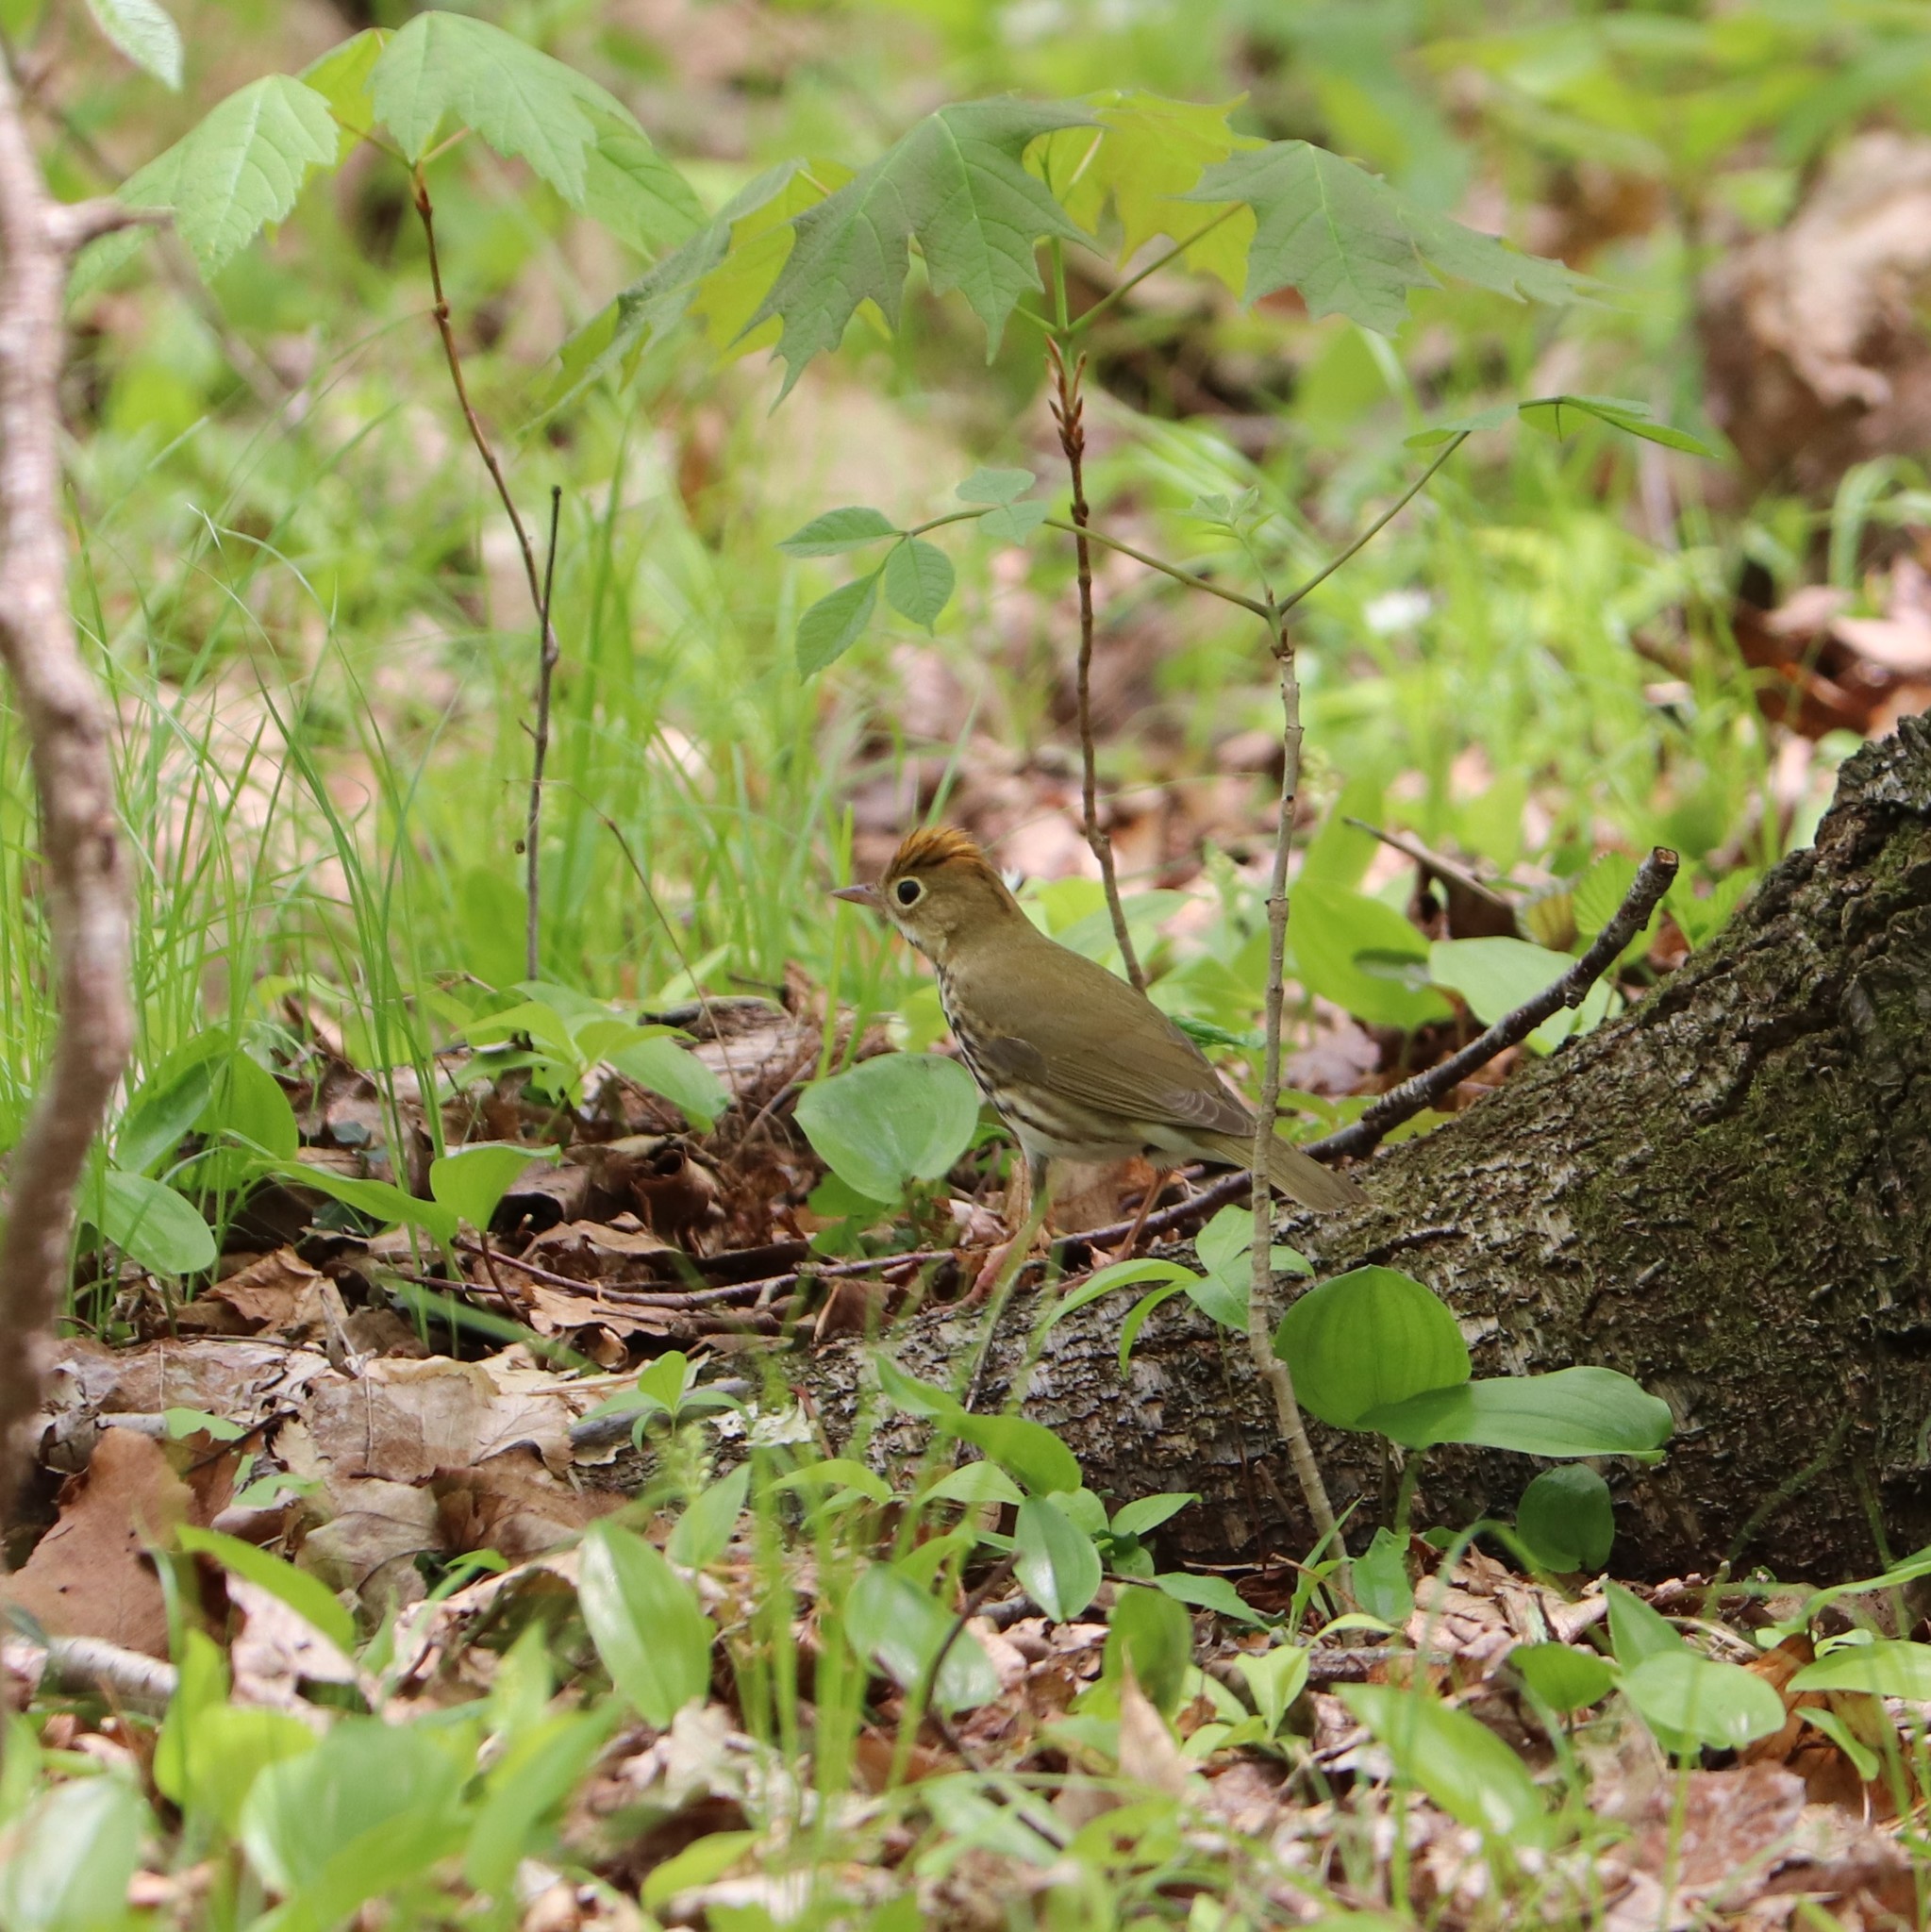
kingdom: Animalia
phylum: Chordata
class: Aves
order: Passeriformes
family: Parulidae
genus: Seiurus
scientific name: Seiurus aurocapilla
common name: Ovenbird
